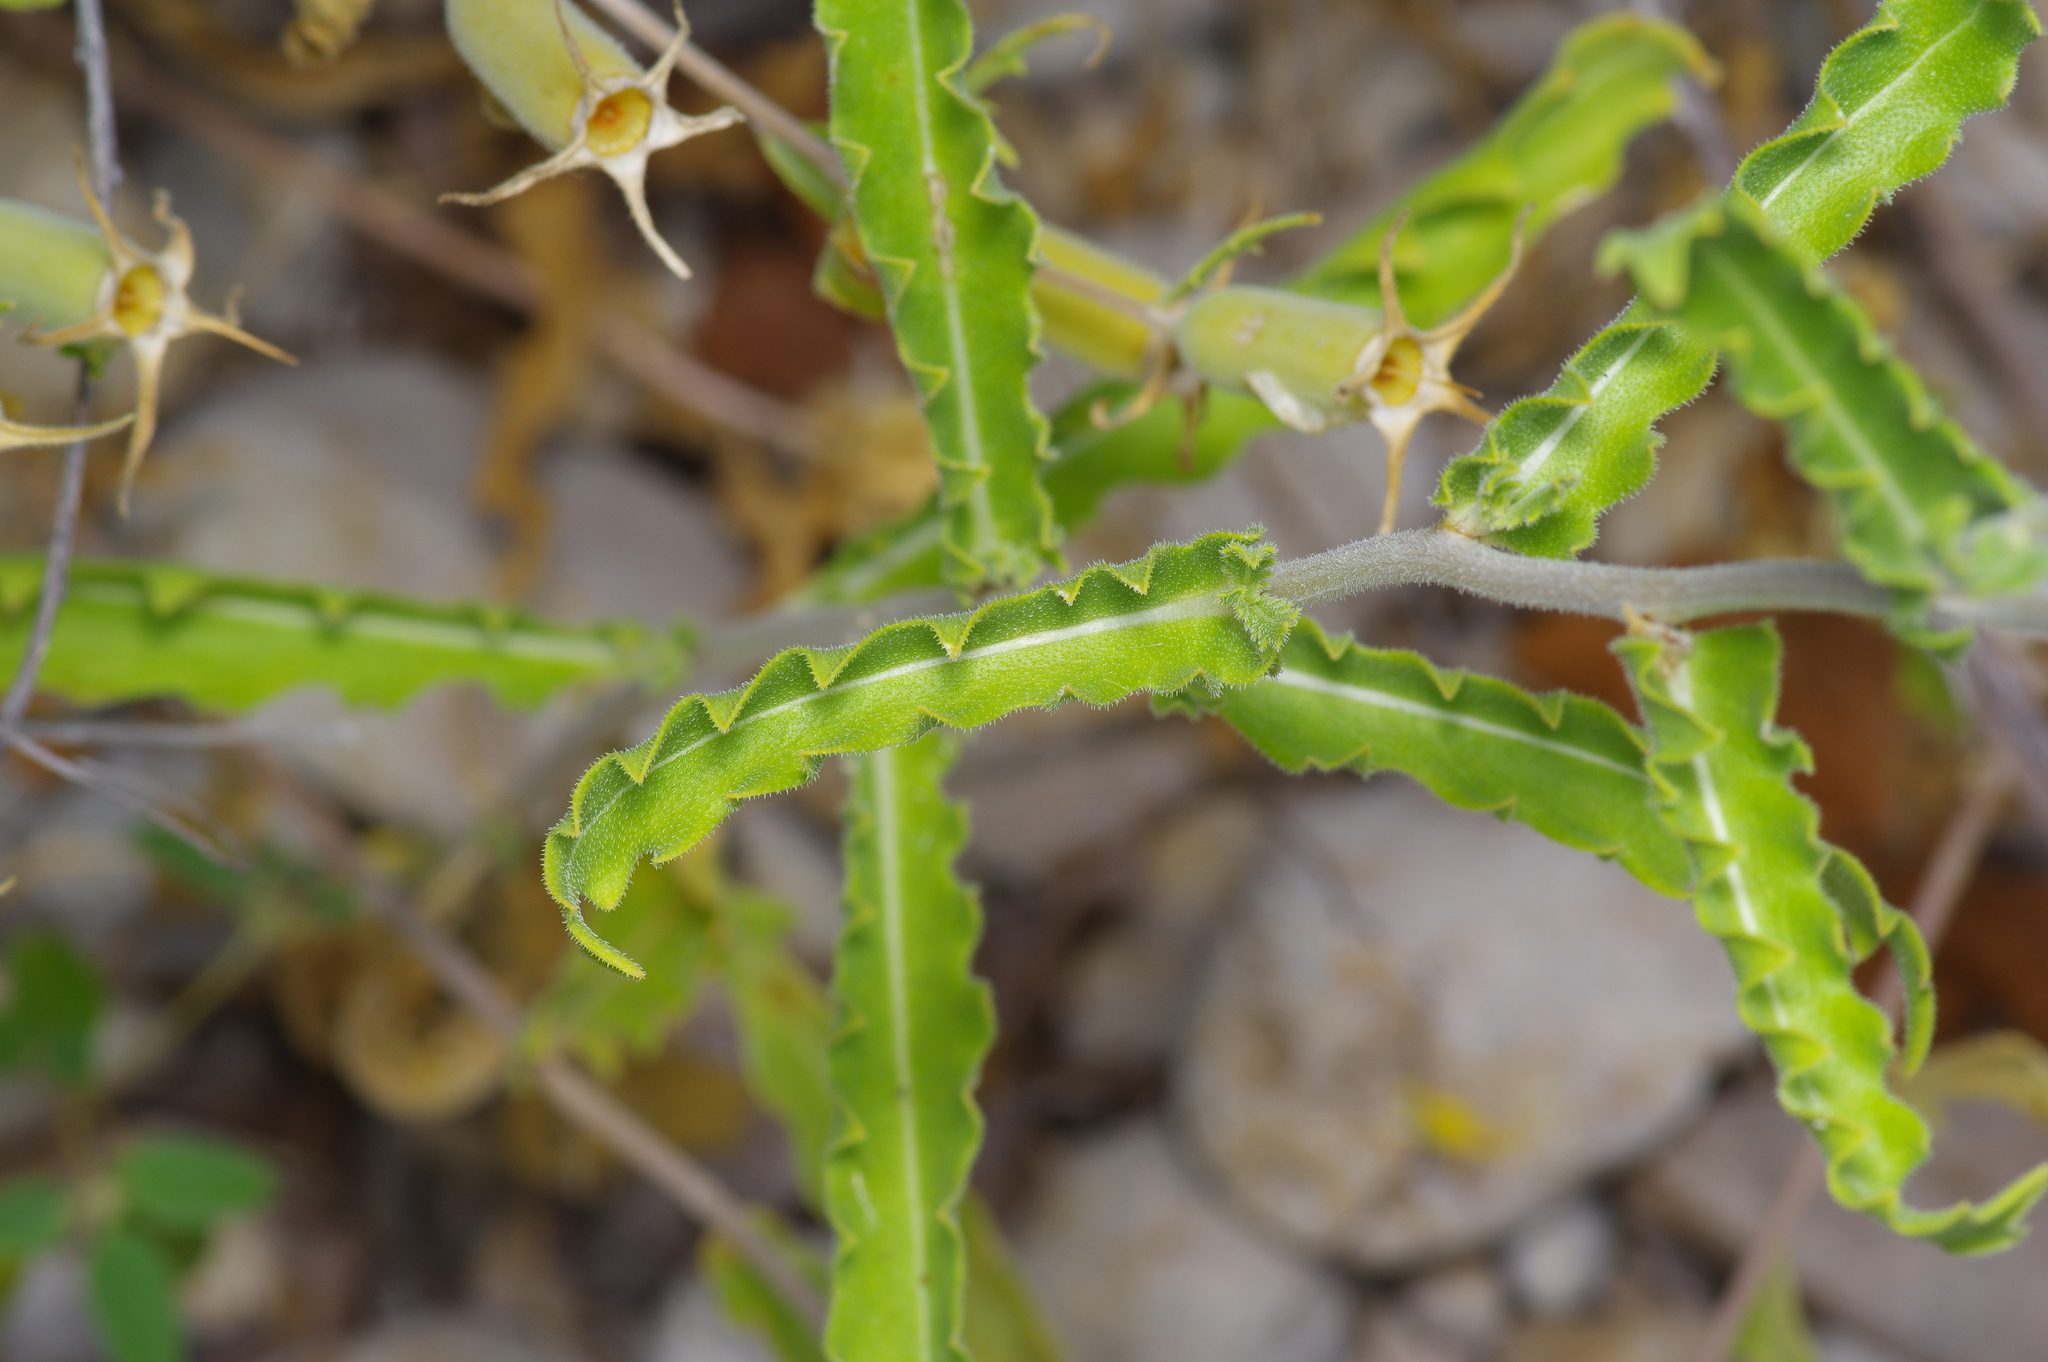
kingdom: Plantae
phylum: Tracheophyta
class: Magnoliopsida
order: Cornales
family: Loasaceae
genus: Mentzelia
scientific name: Mentzelia albescens
